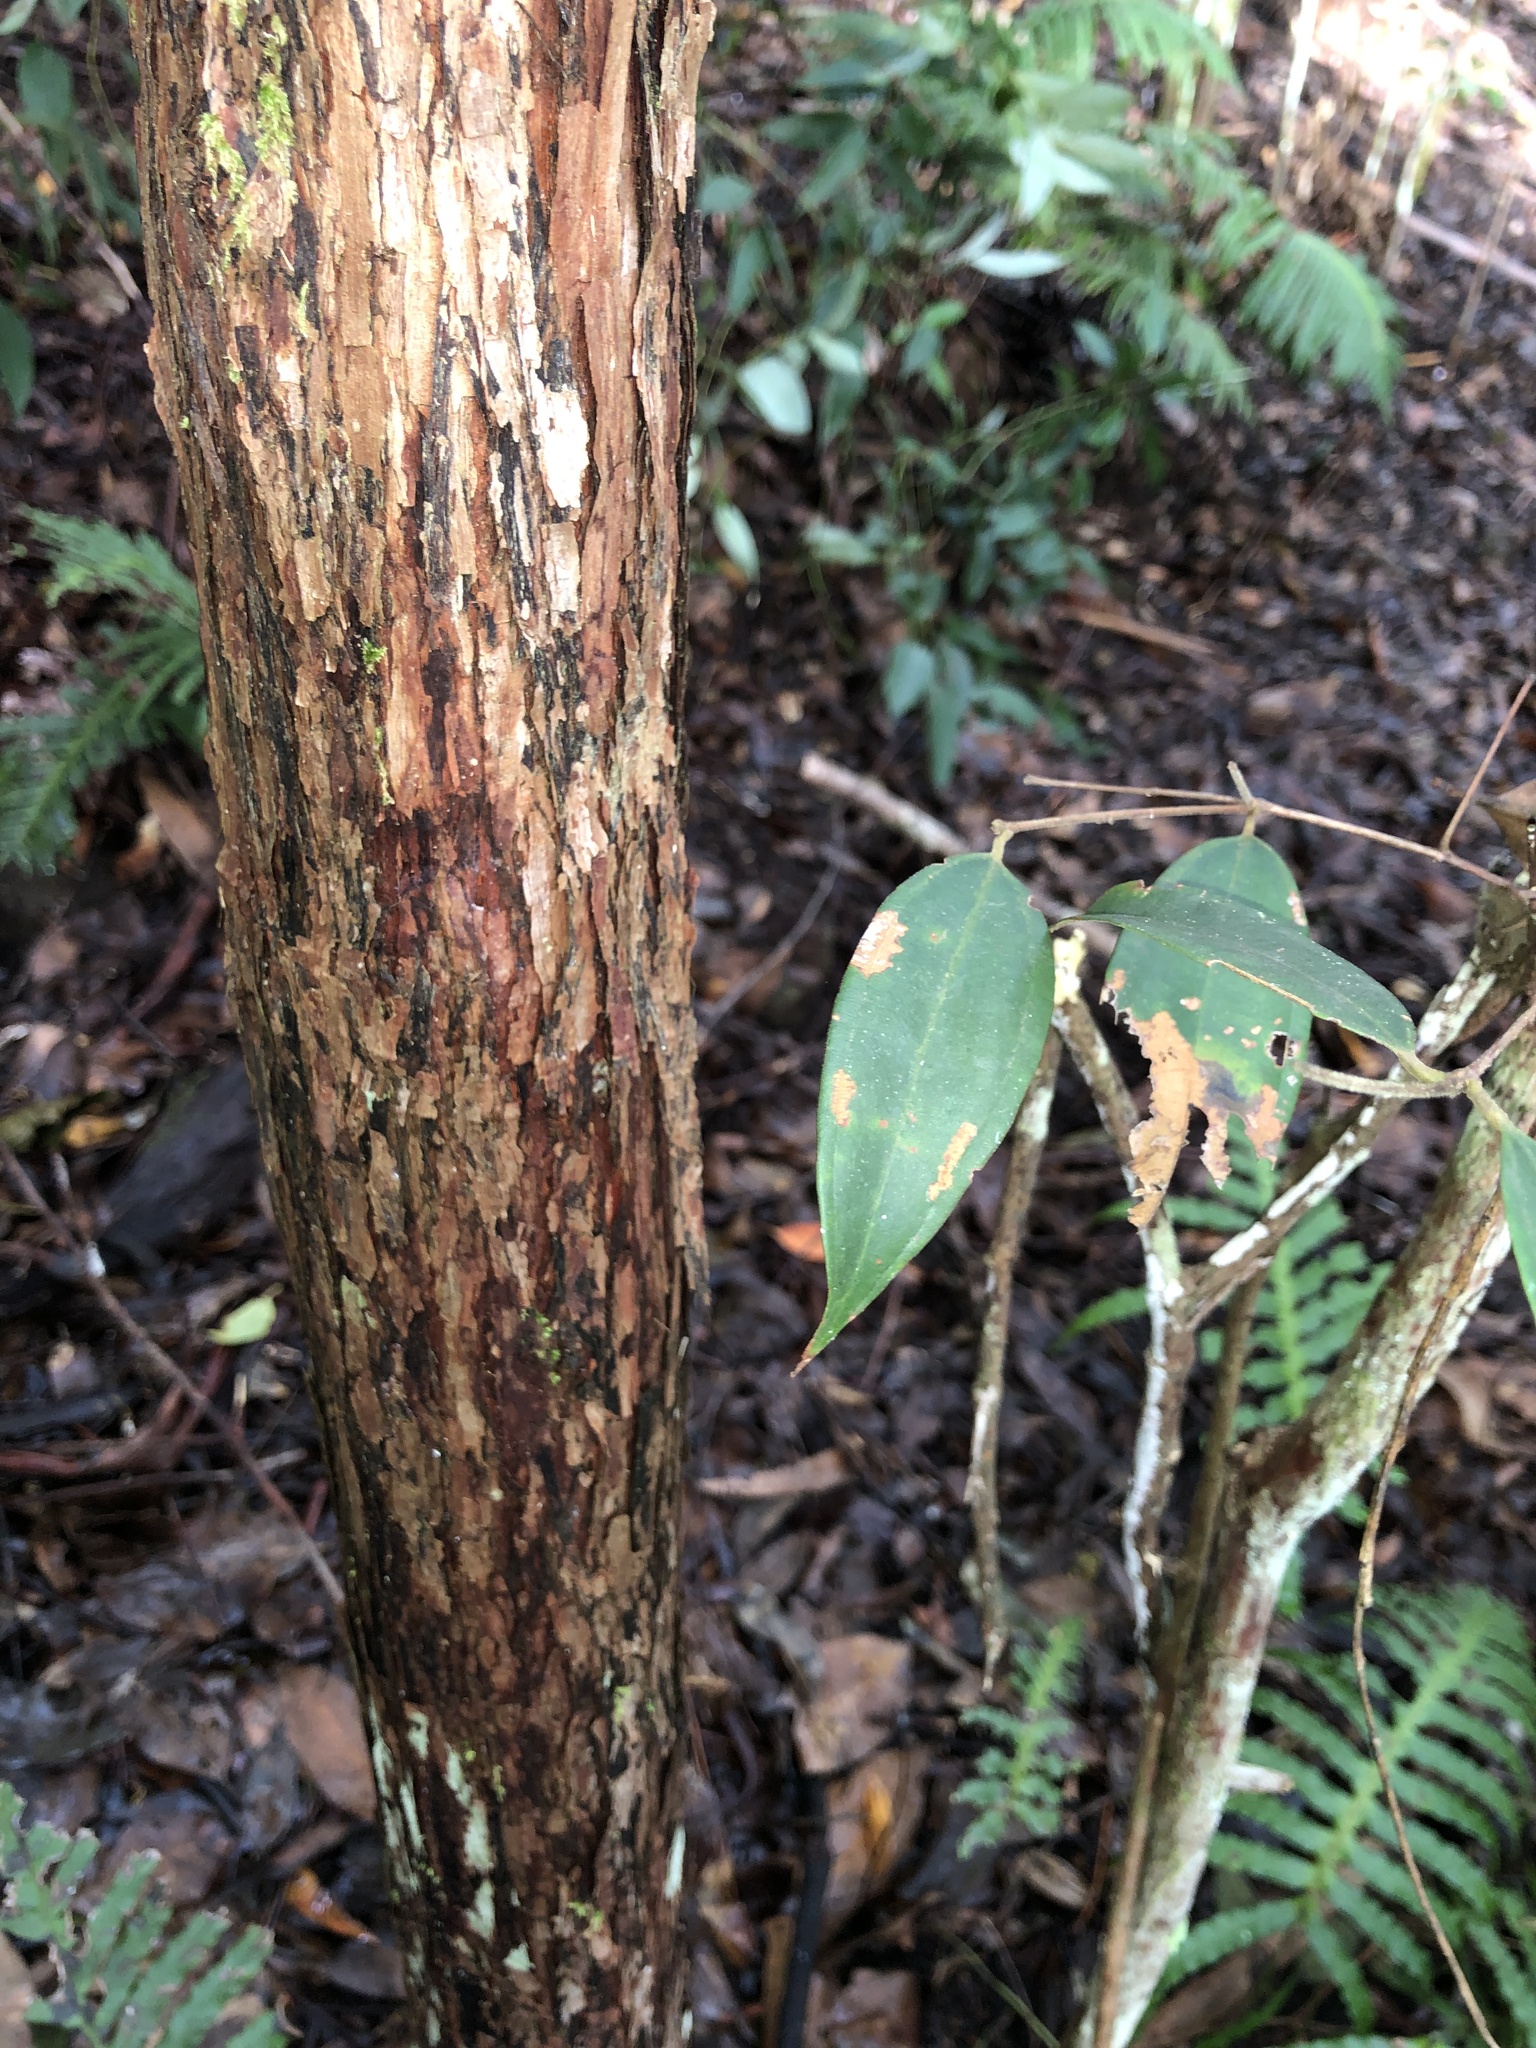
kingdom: Plantae
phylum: Tracheophyta
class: Magnoliopsida
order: Myrtales
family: Myrtaceae
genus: Rhodamnia
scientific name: Rhodamnia rubescens
